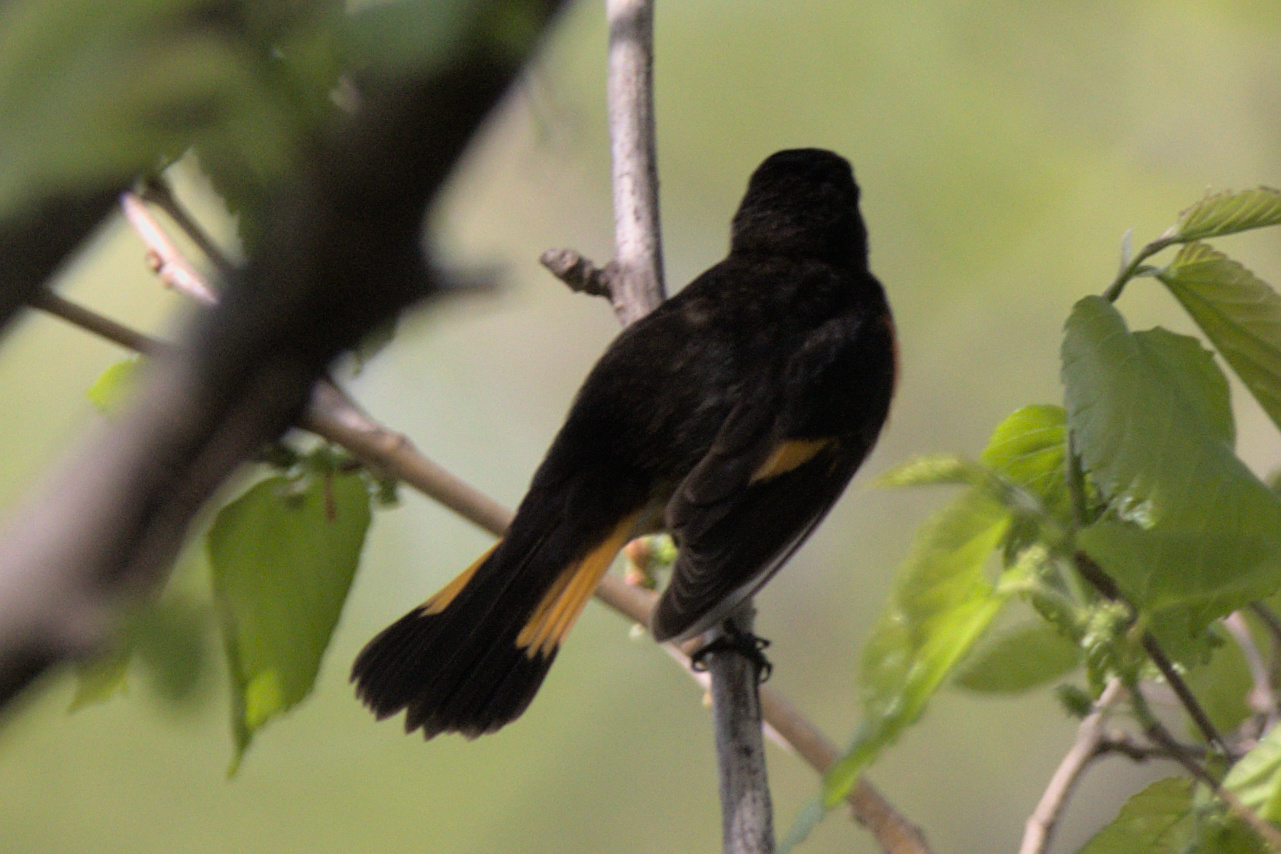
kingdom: Animalia
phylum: Chordata
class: Aves
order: Passeriformes
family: Parulidae
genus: Setophaga
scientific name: Setophaga ruticilla
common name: American redstart
